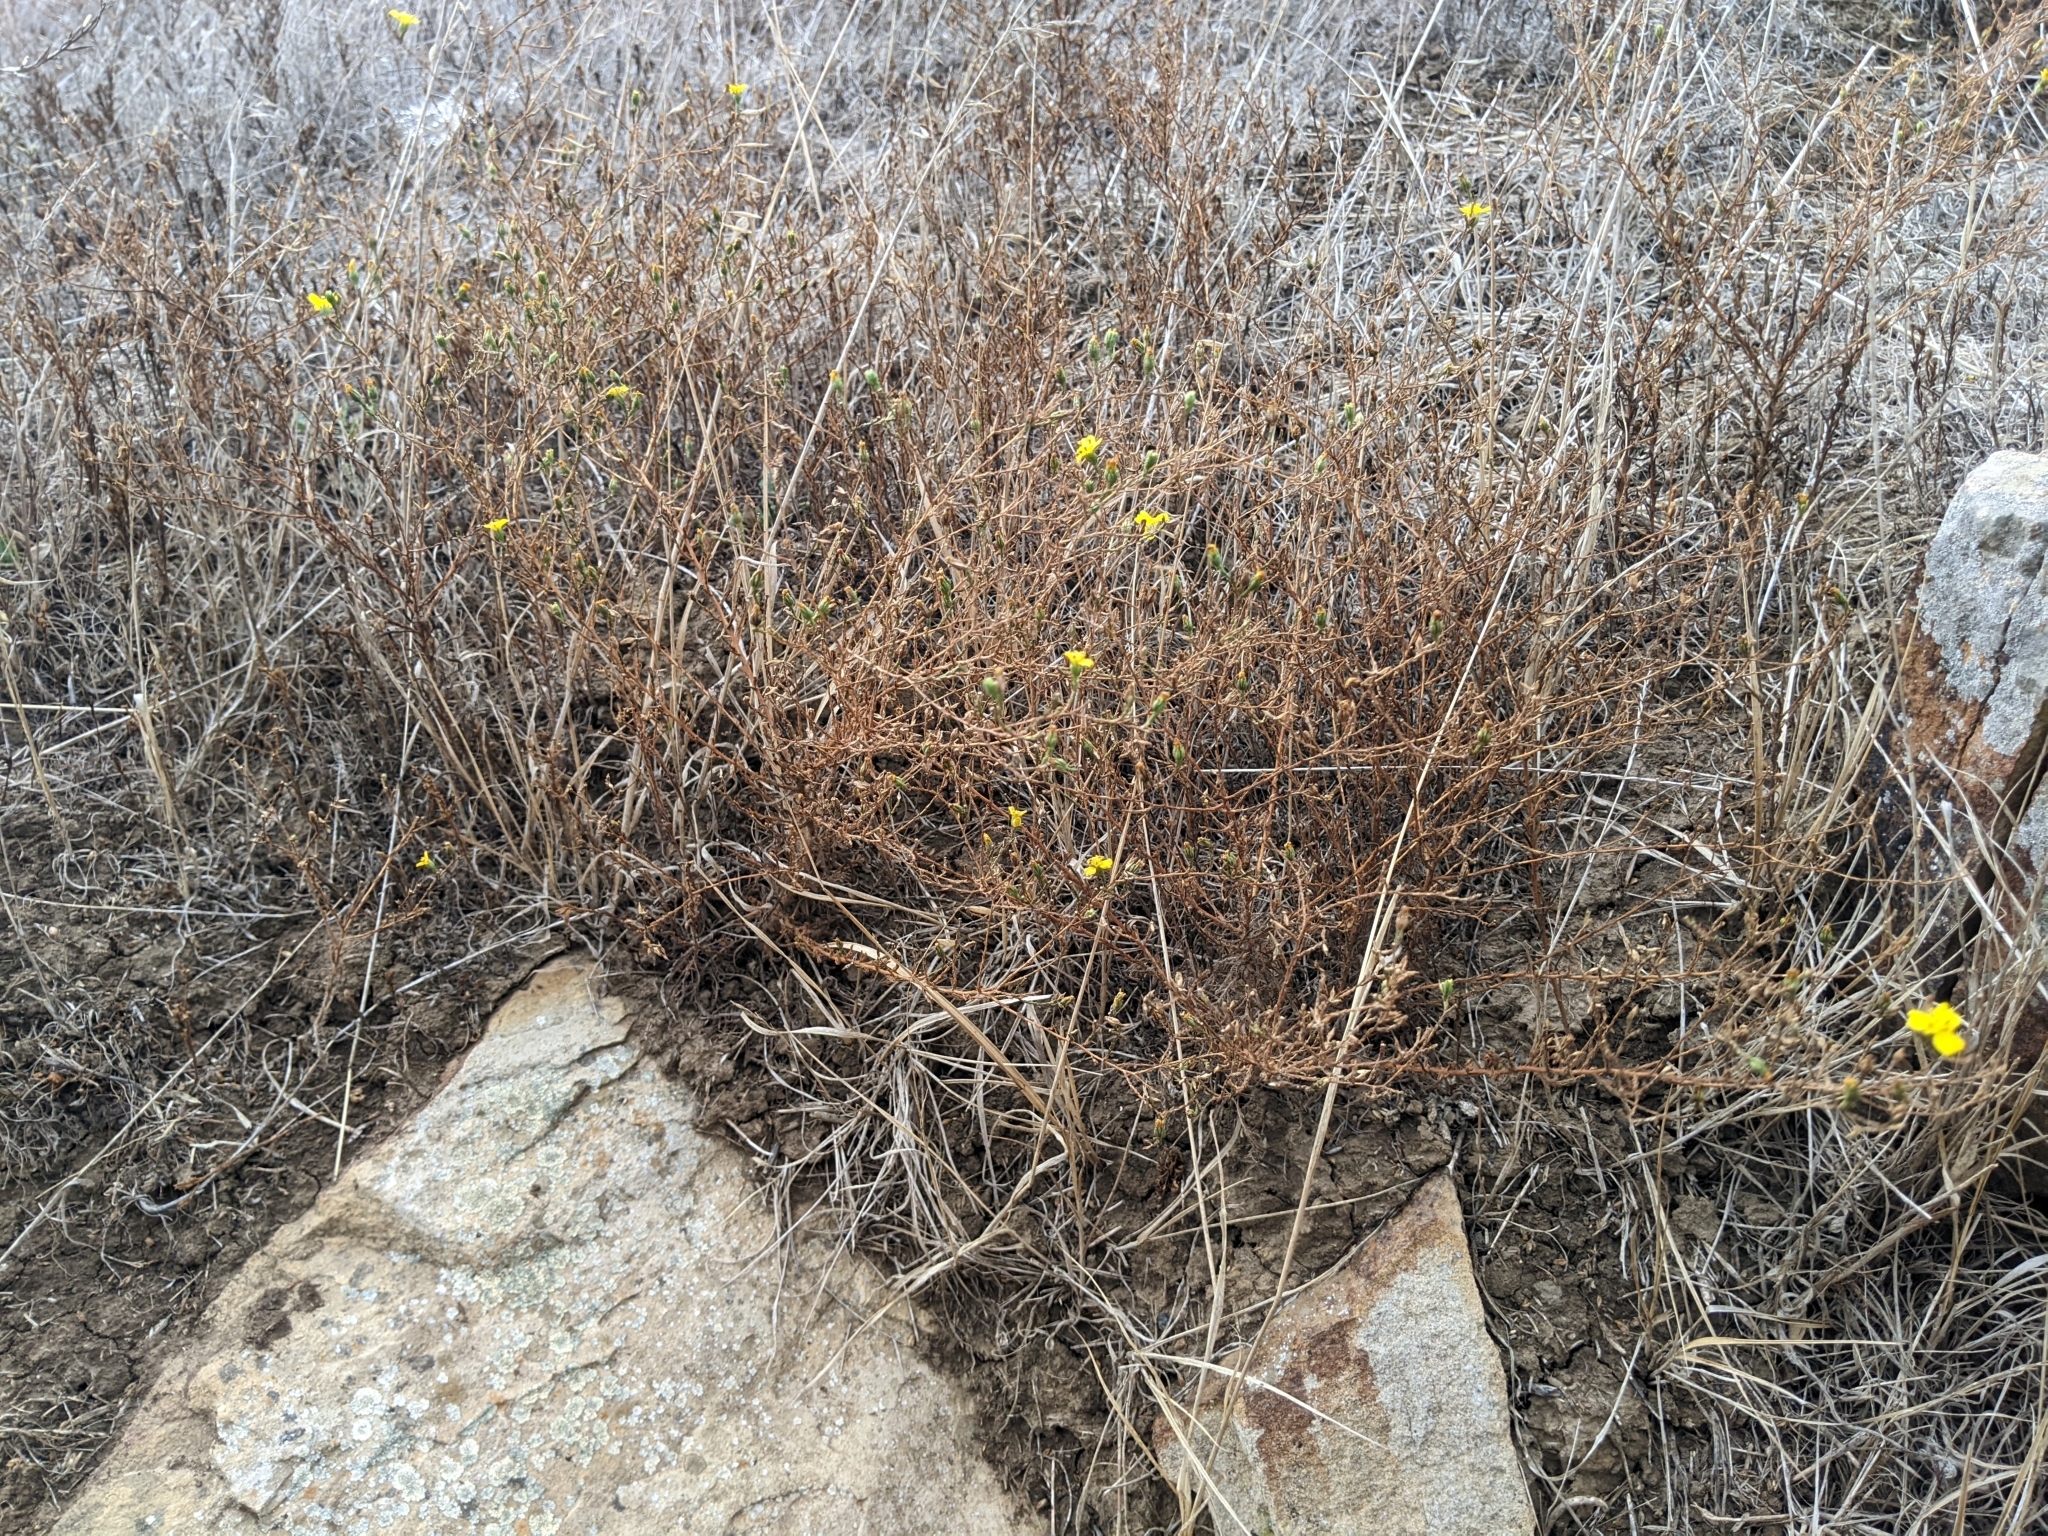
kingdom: Plantae
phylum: Tracheophyta
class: Magnoliopsida
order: Asterales
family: Asteraceae
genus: Deinandra
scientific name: Deinandra lobbii
